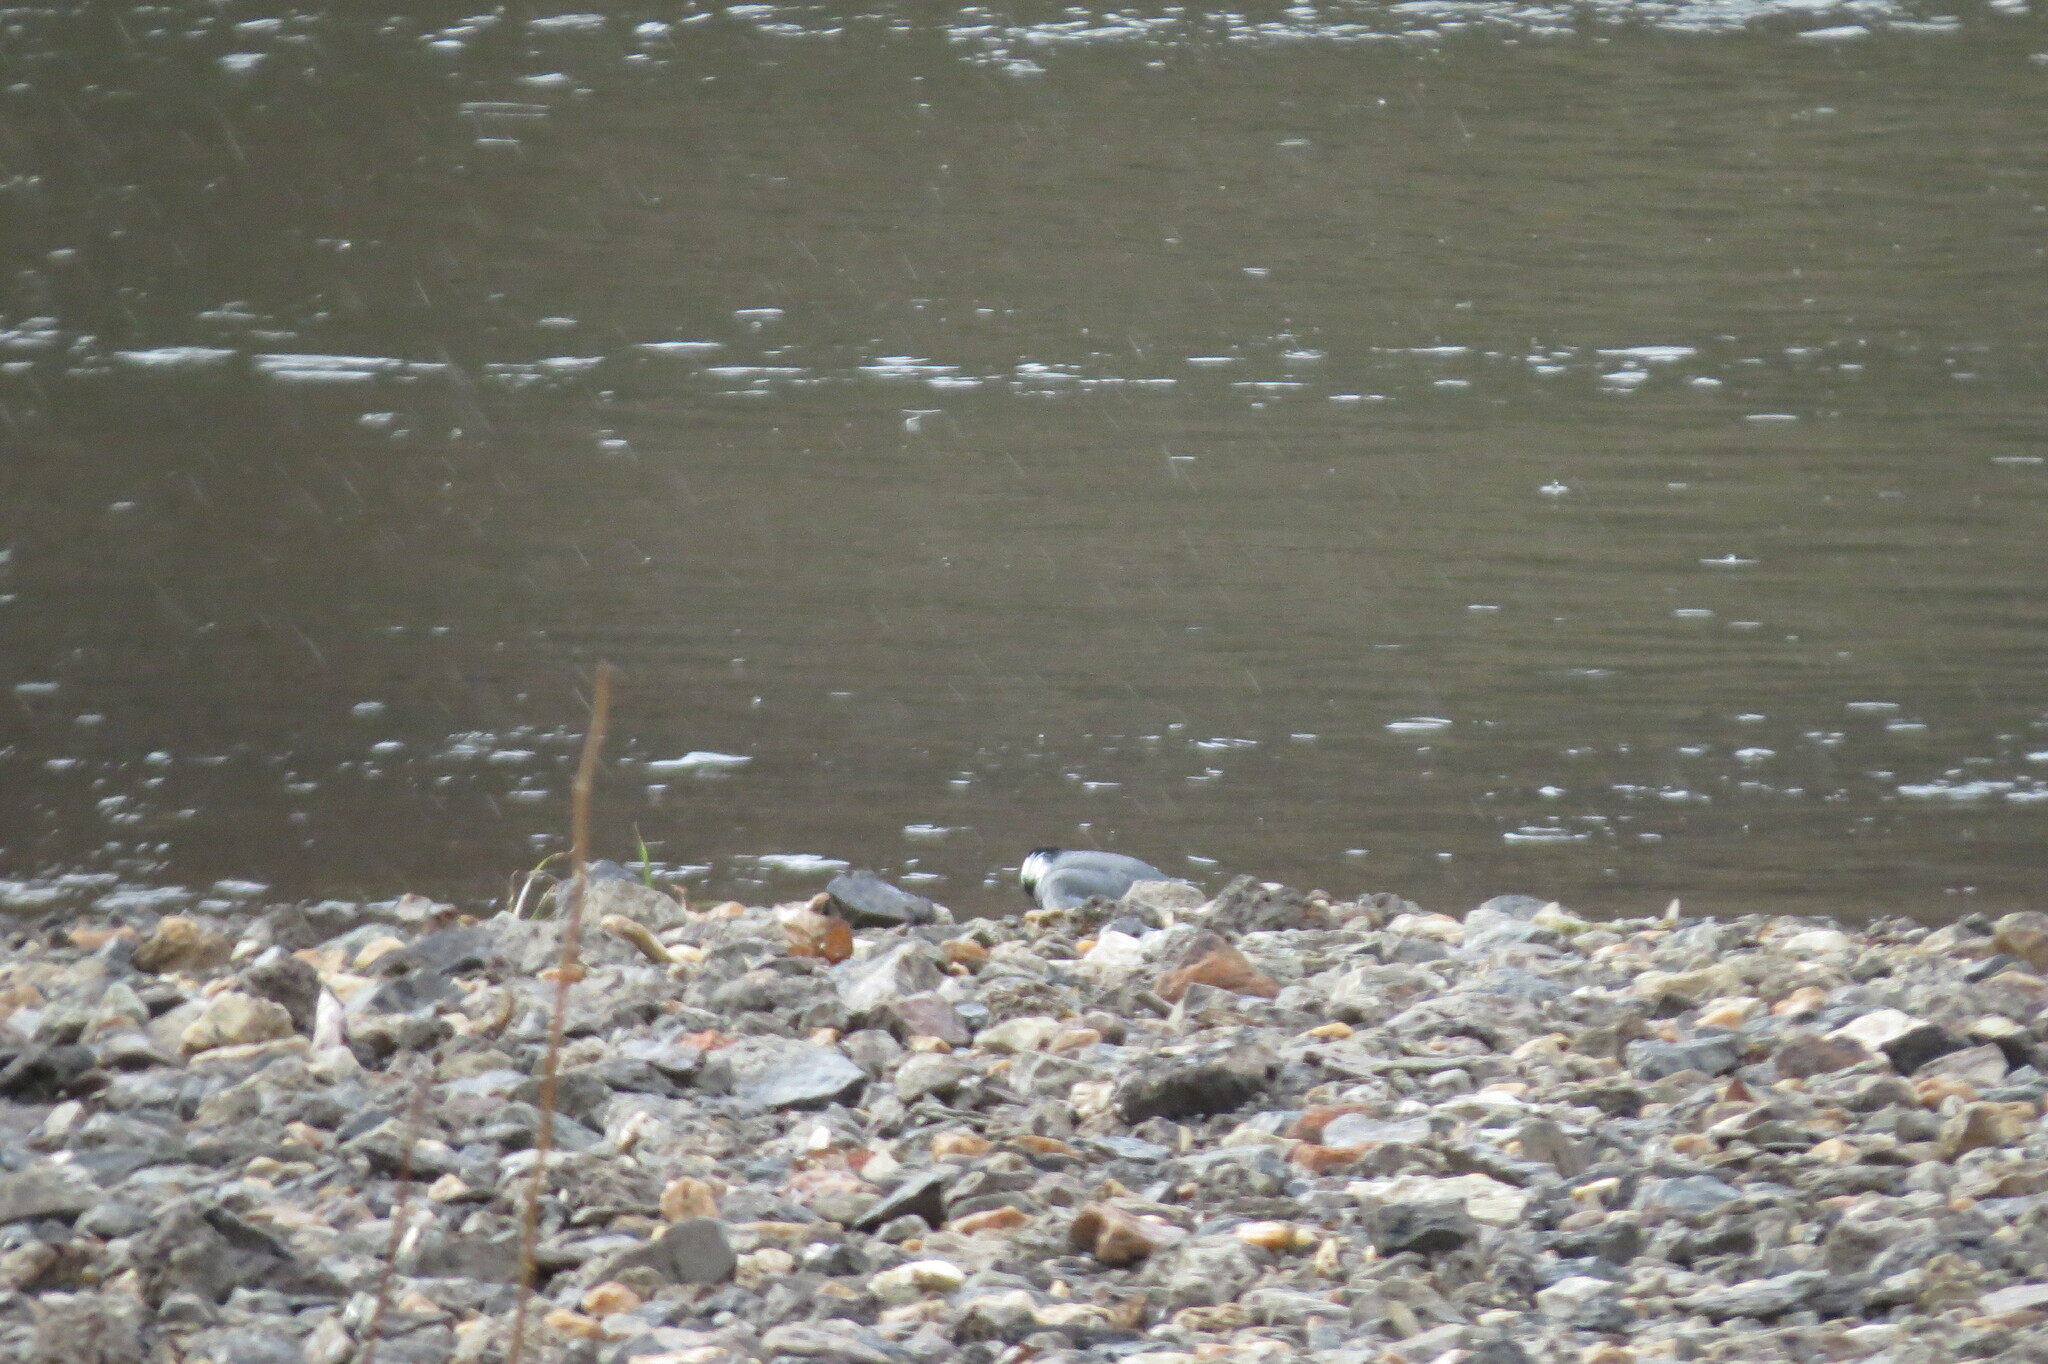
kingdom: Animalia
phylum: Chordata
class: Aves
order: Passeriformes
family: Motacillidae
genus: Motacilla
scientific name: Motacilla alba
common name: White wagtail
